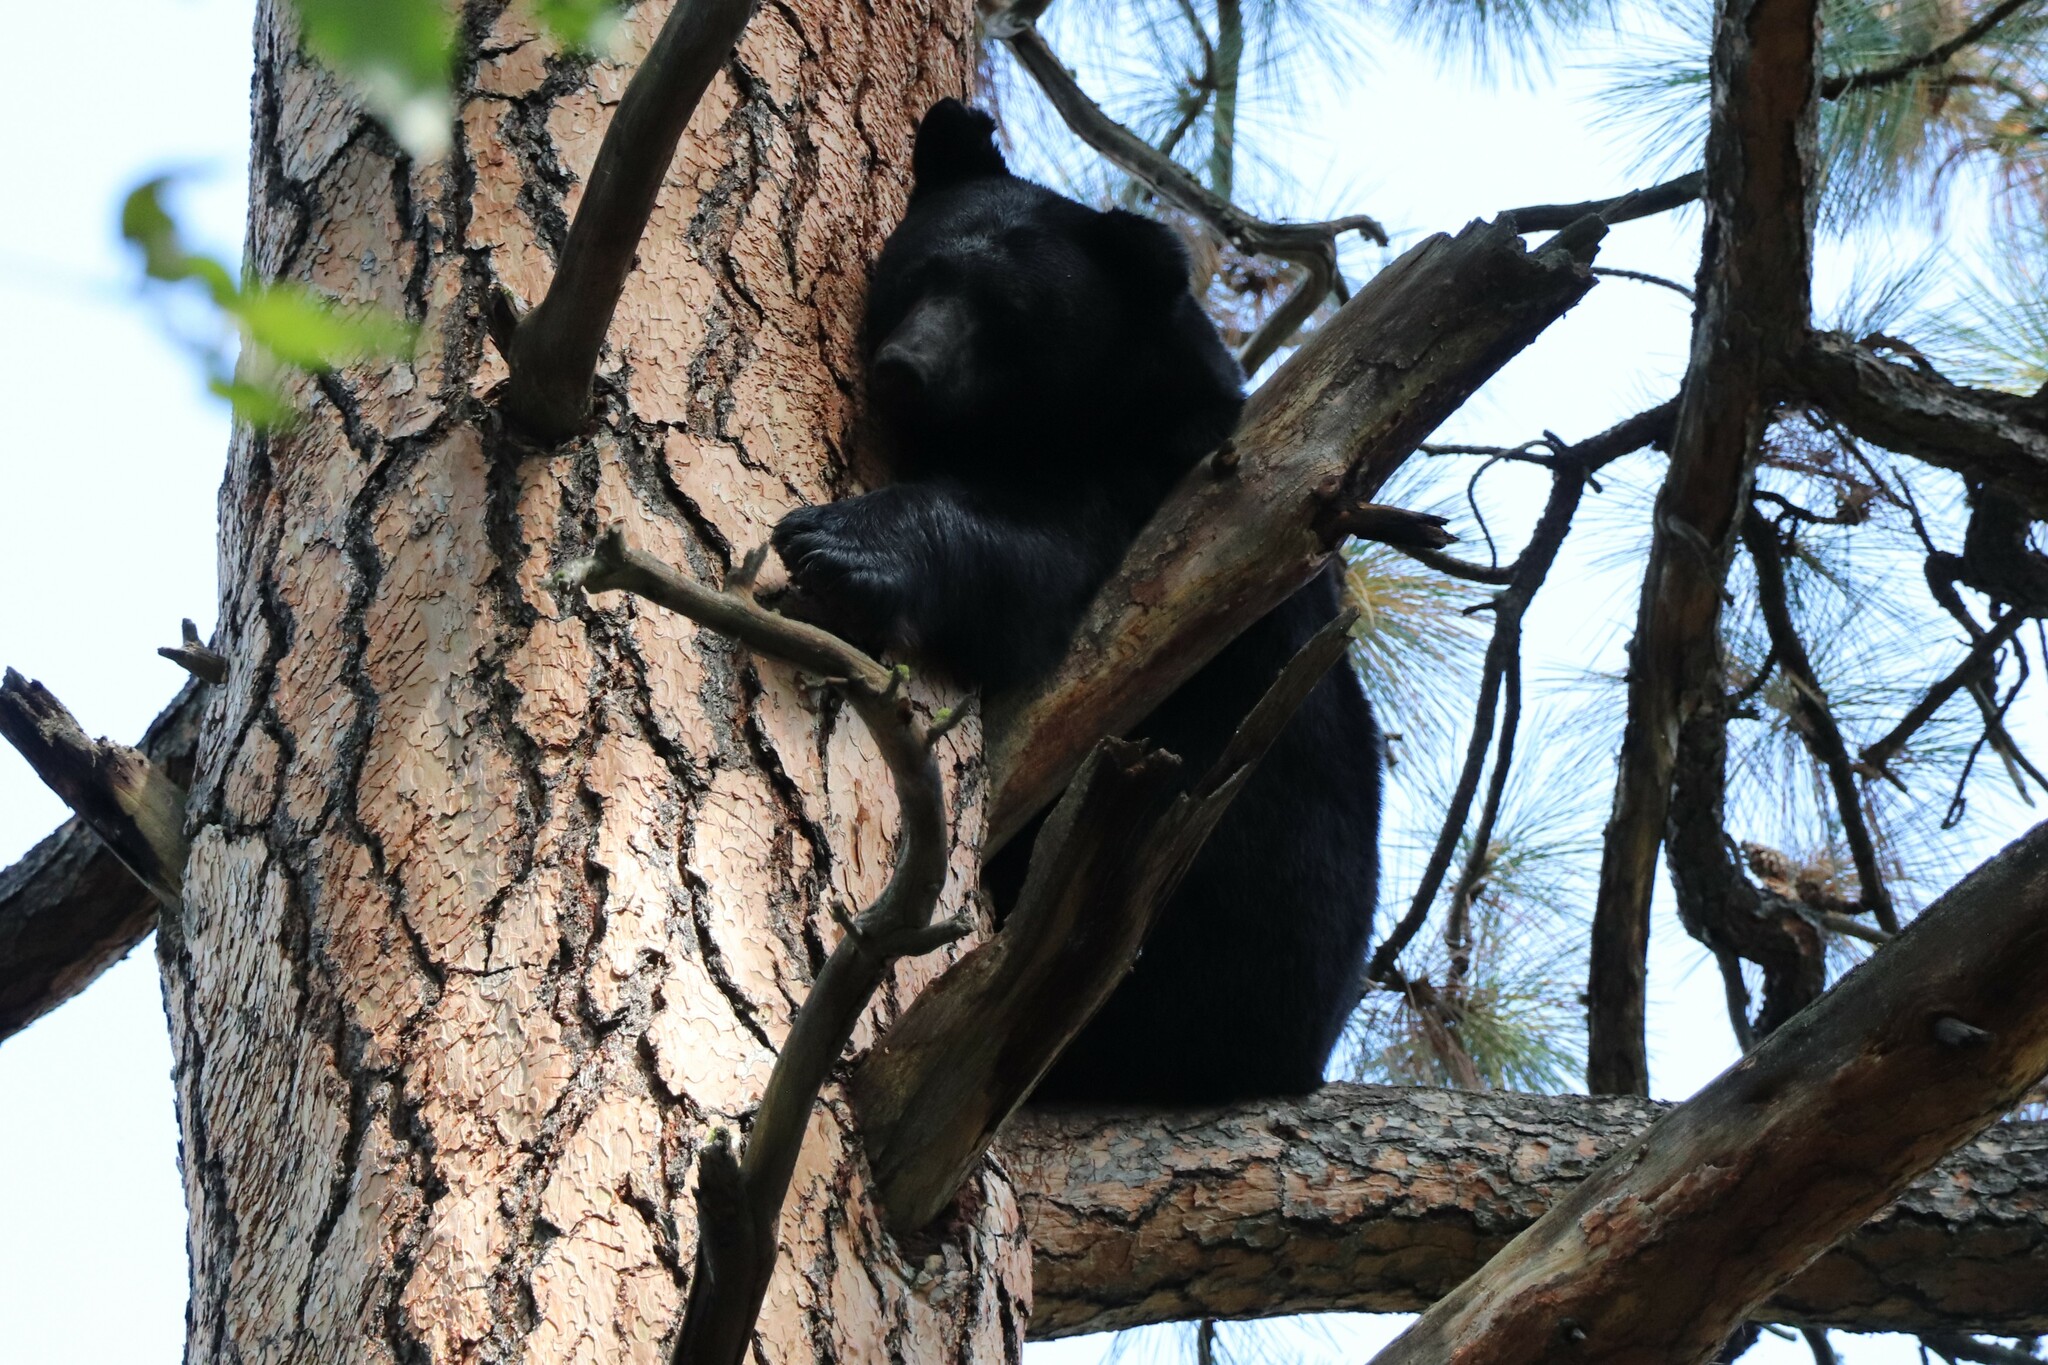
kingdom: Animalia
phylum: Chordata
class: Mammalia
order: Carnivora
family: Ursidae
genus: Ursus
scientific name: Ursus americanus
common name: American black bear
